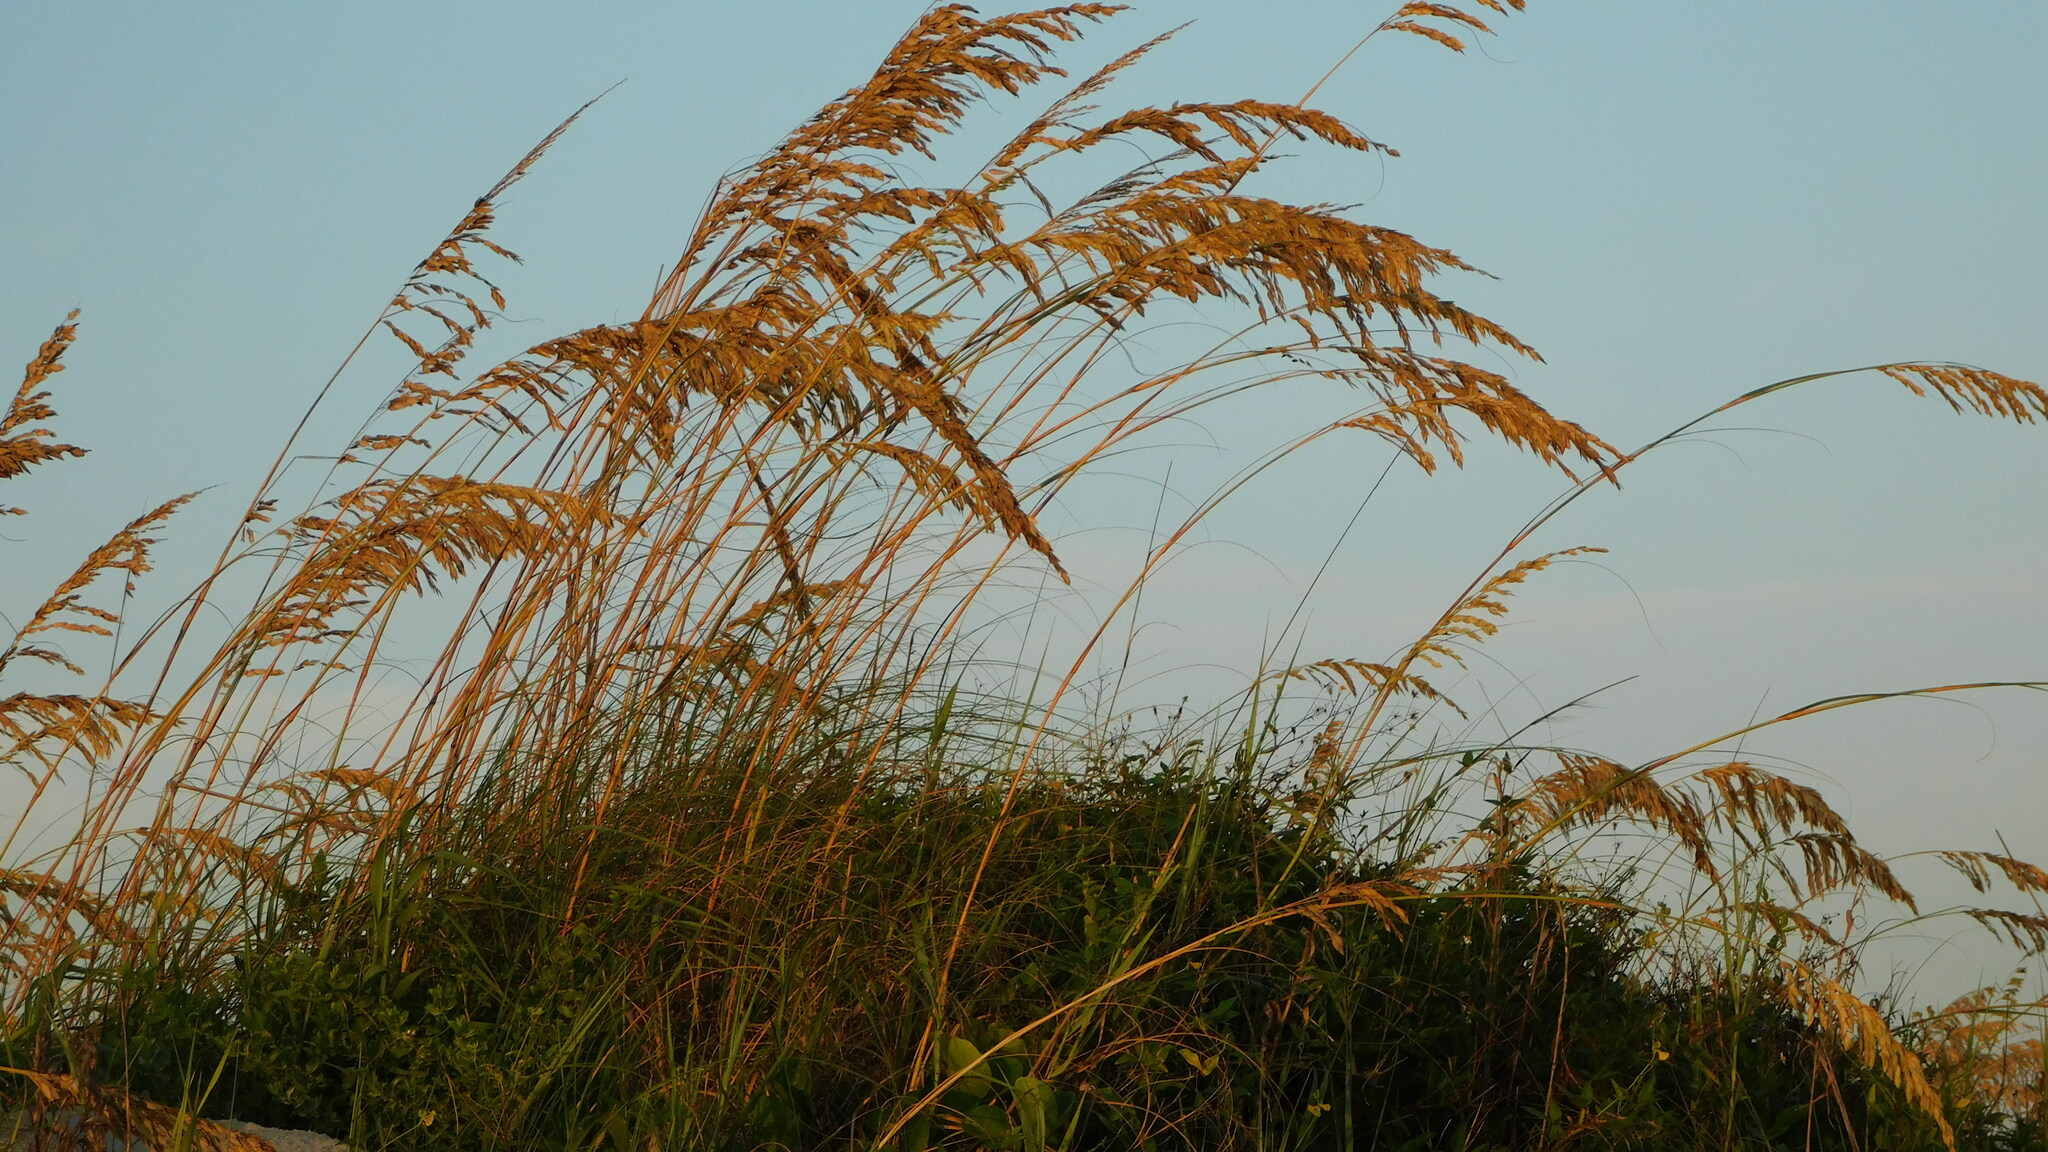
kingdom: Plantae
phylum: Tracheophyta
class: Liliopsida
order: Poales
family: Poaceae
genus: Uniola
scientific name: Uniola paniculata
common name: Seaside-oats
